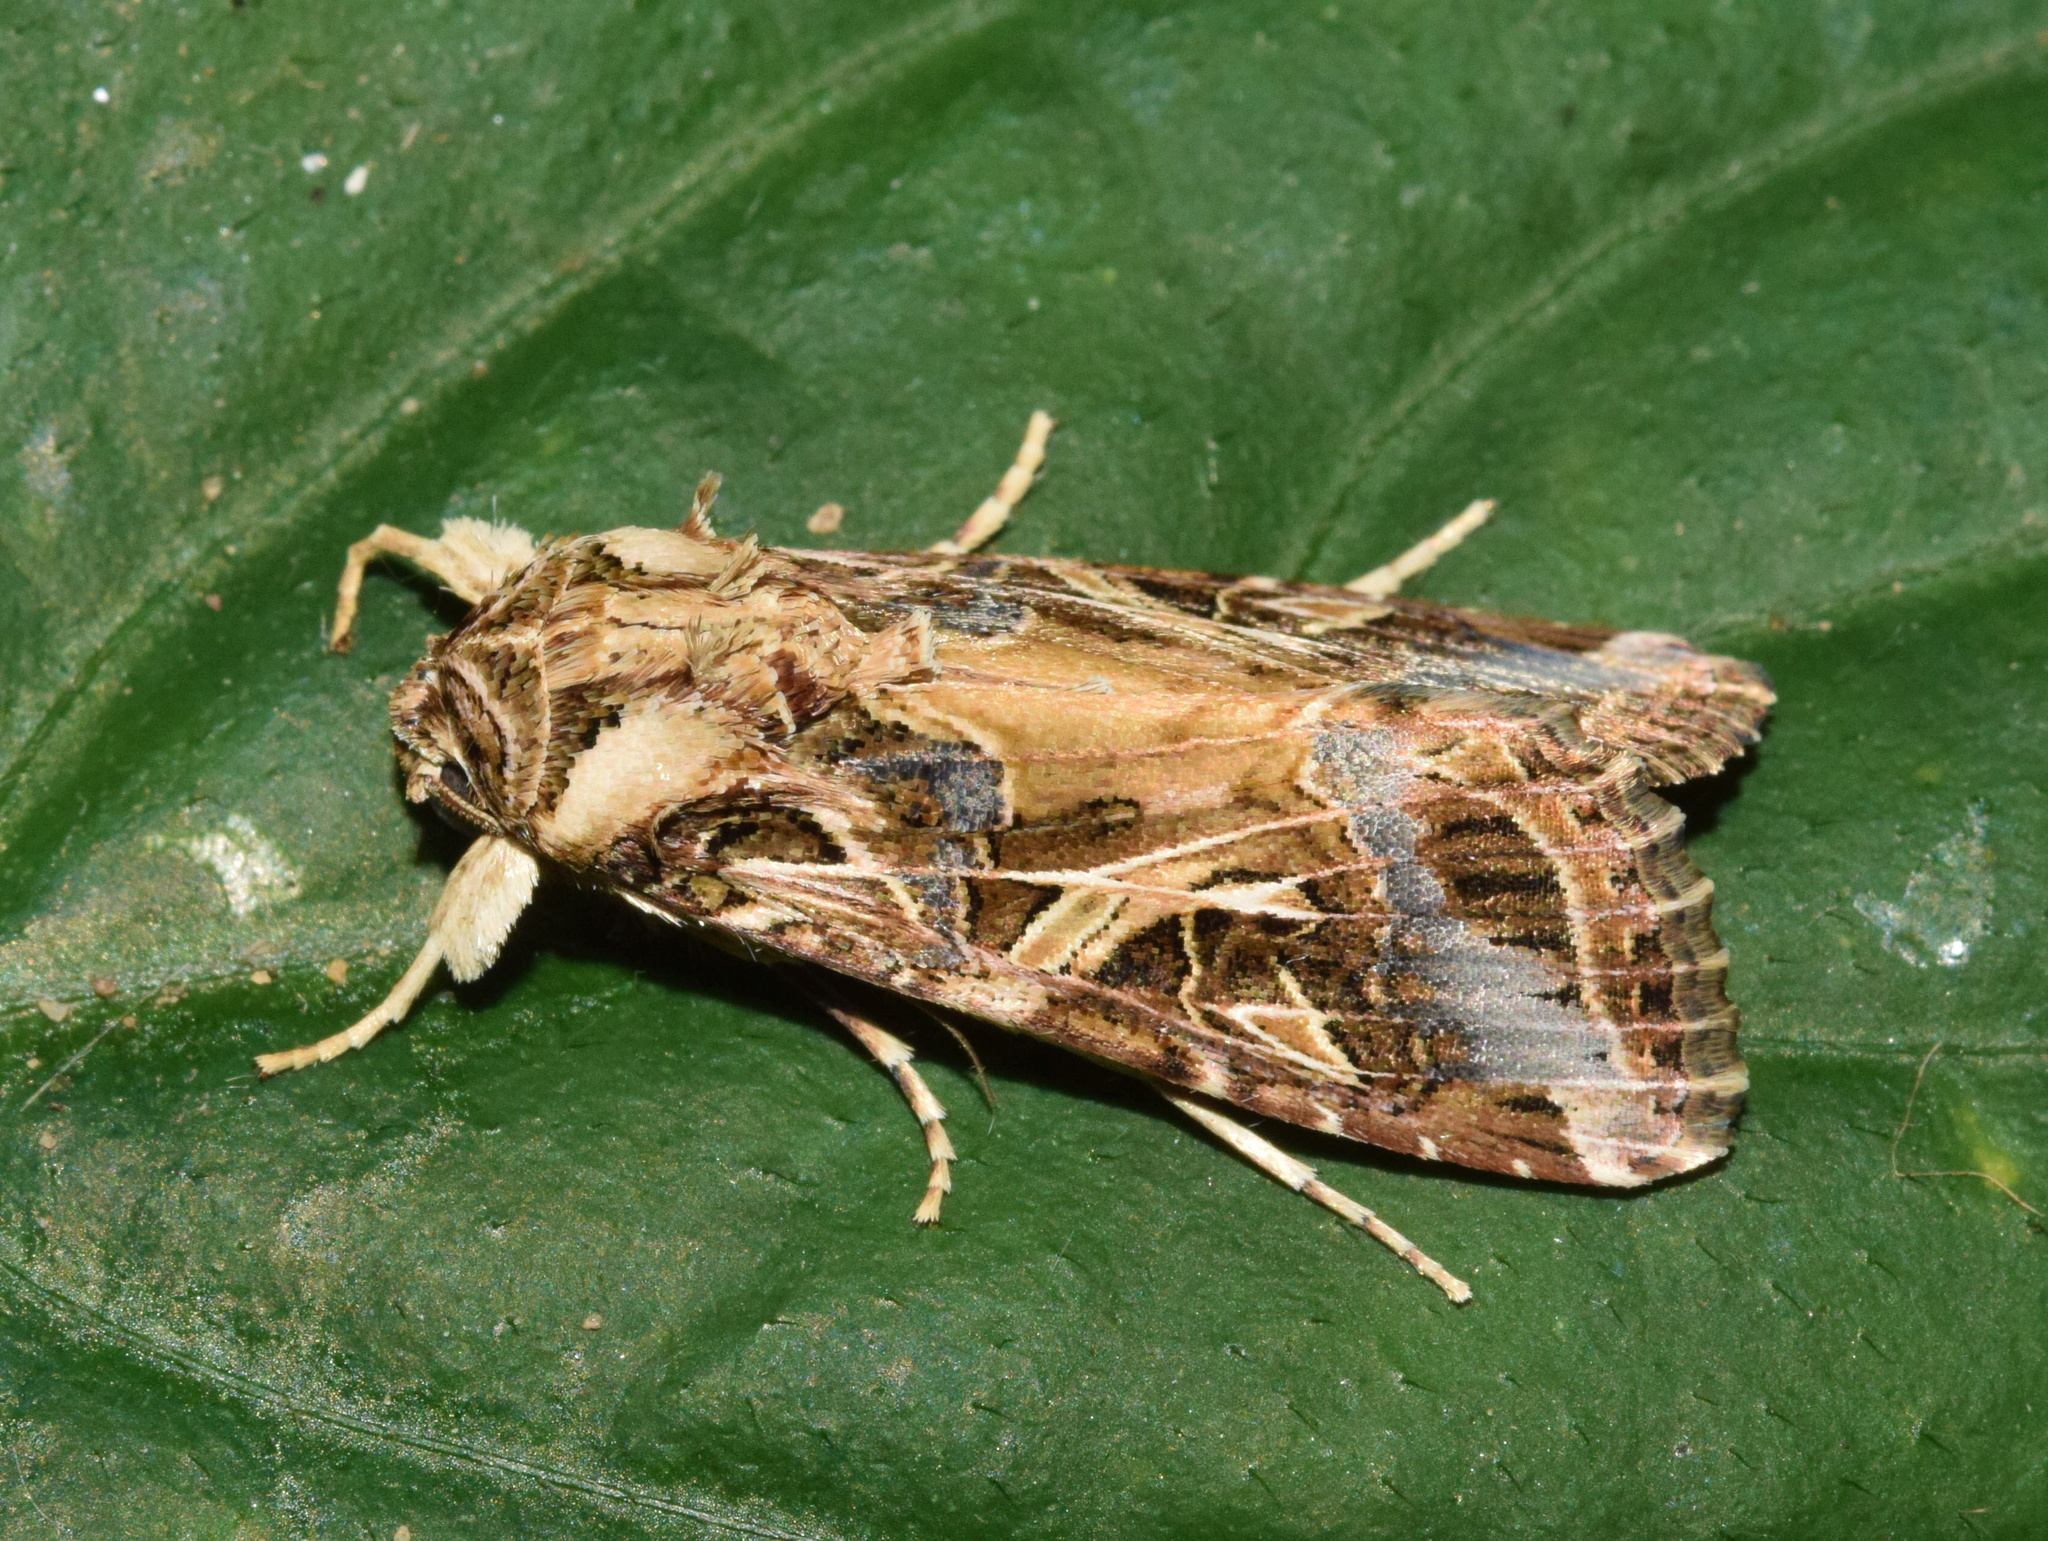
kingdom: Animalia
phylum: Arthropoda
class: Insecta
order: Lepidoptera
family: Noctuidae
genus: Spodoptera
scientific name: Spodoptera littoralis
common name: Egyptian cotton leafworm
